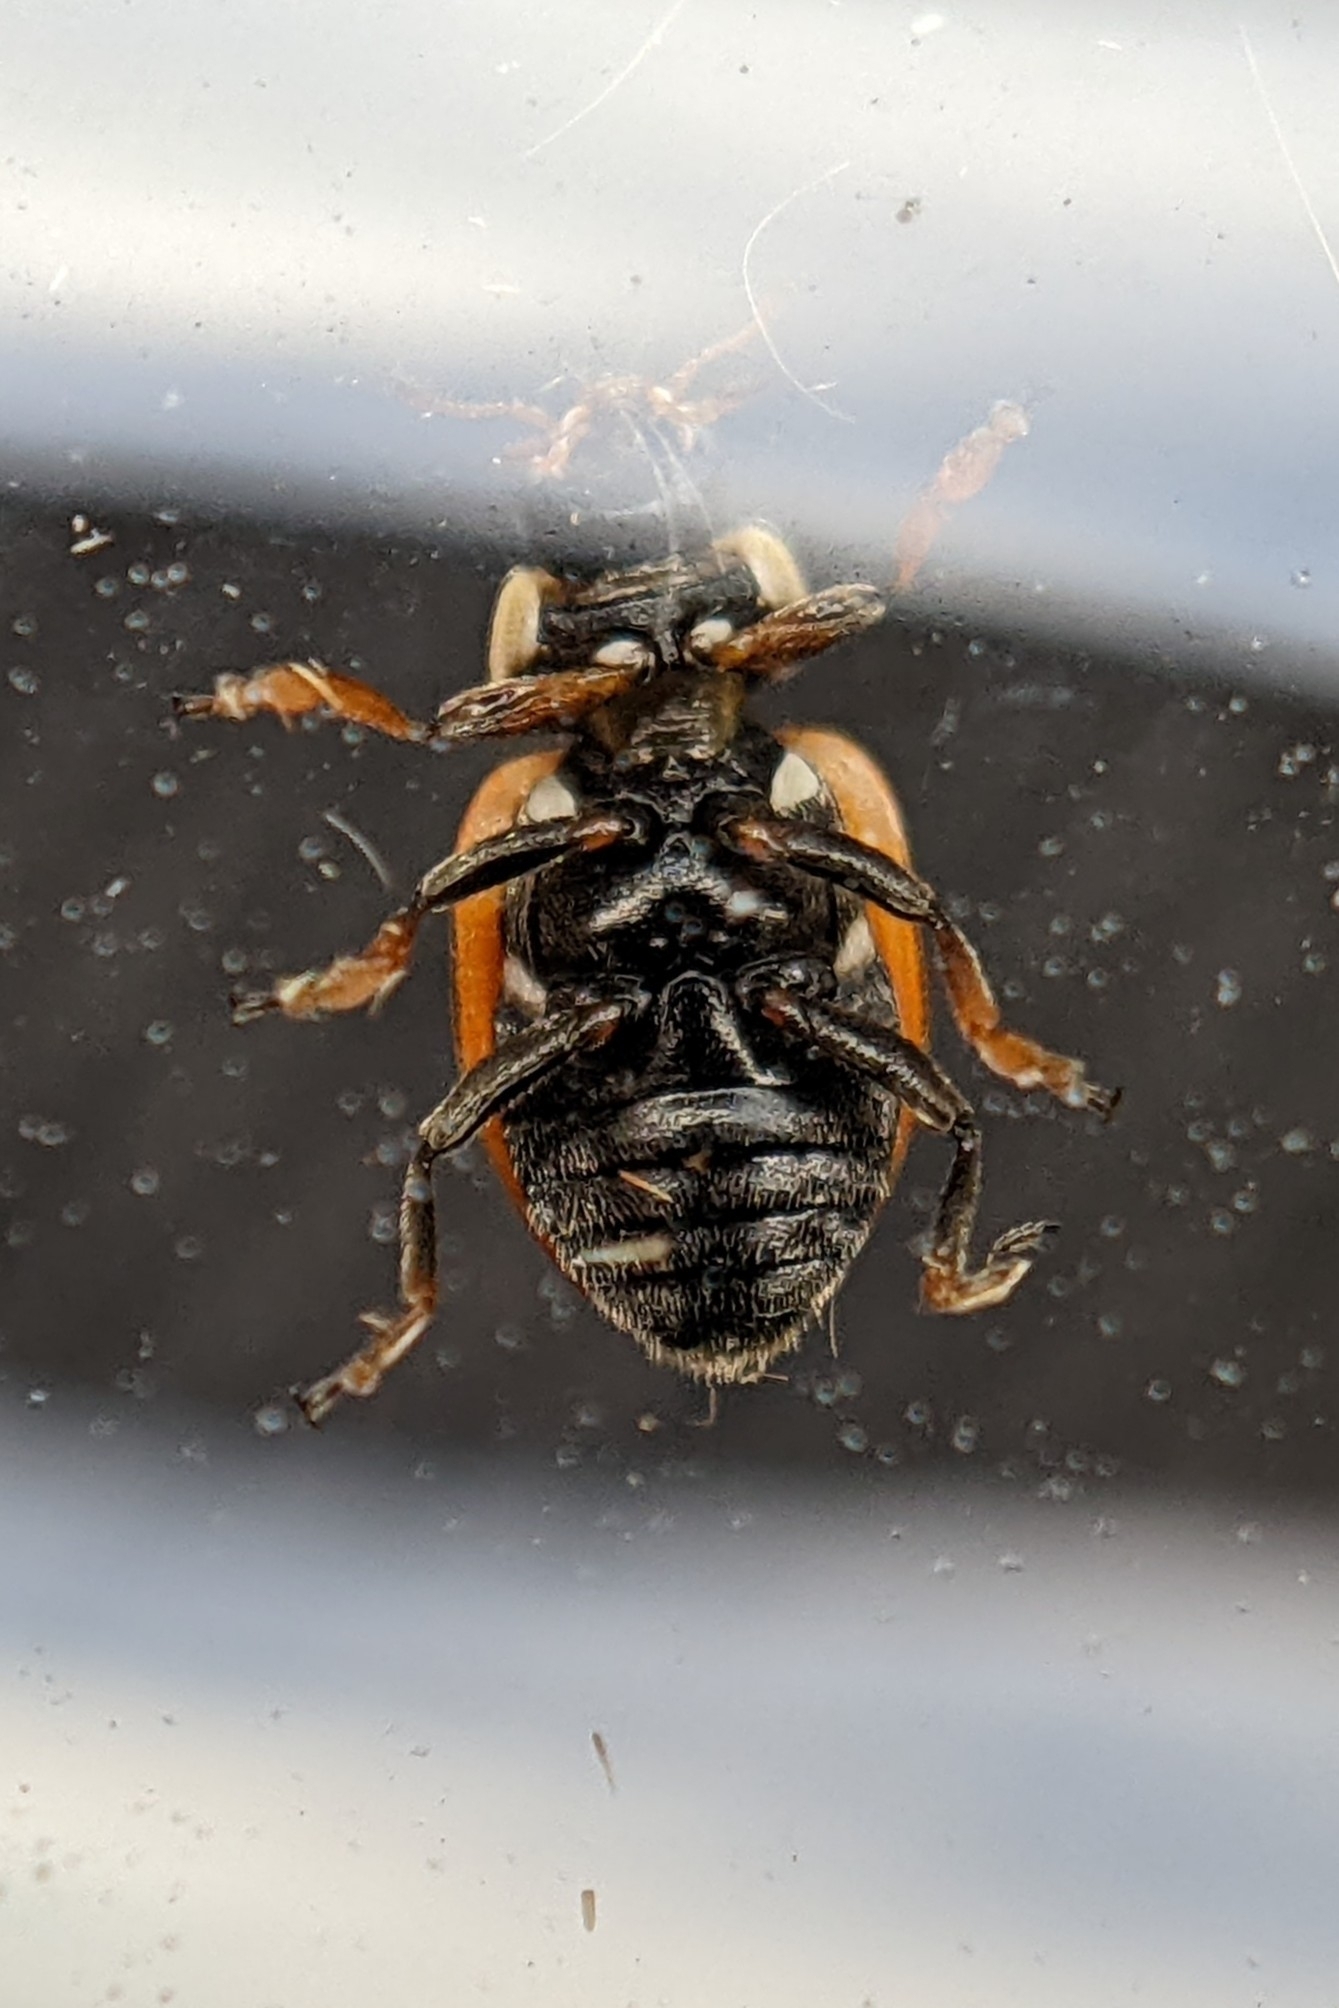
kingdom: Animalia
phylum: Arthropoda
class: Insecta
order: Coleoptera
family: Coccinellidae
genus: Hippodamia
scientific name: Hippodamia variegata
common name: Ladybird beetle
